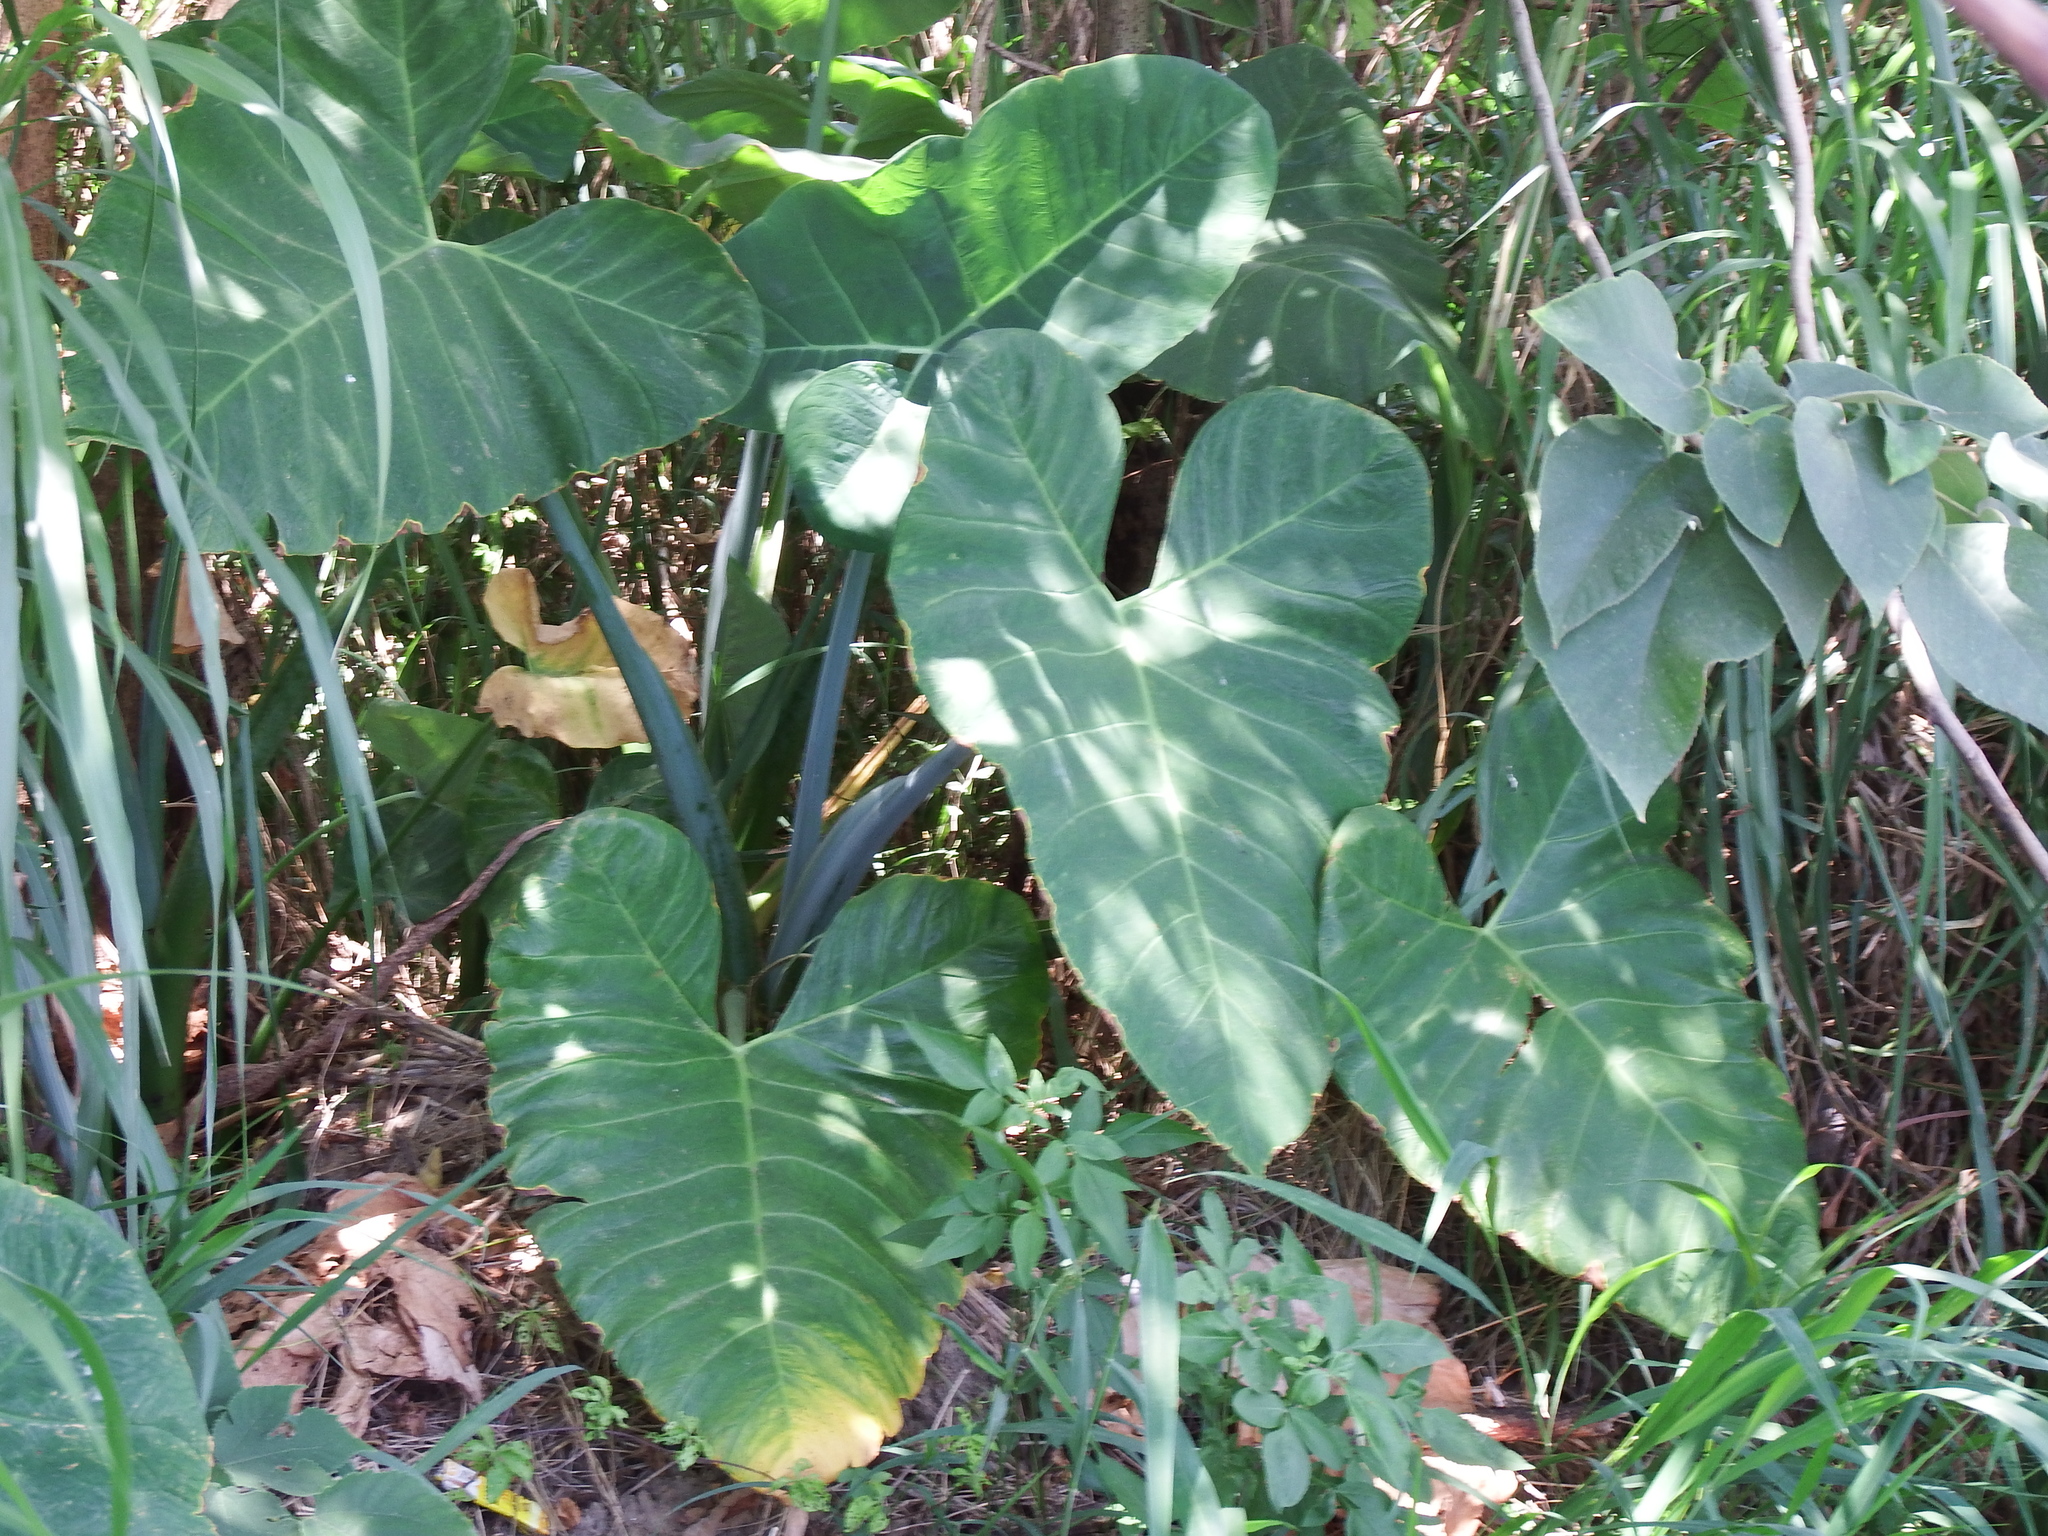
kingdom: Plantae
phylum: Tracheophyta
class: Liliopsida
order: Alismatales
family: Araceae
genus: Xanthosoma
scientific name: Xanthosoma sagittifolium
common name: Arrowleaf elephant's ear
